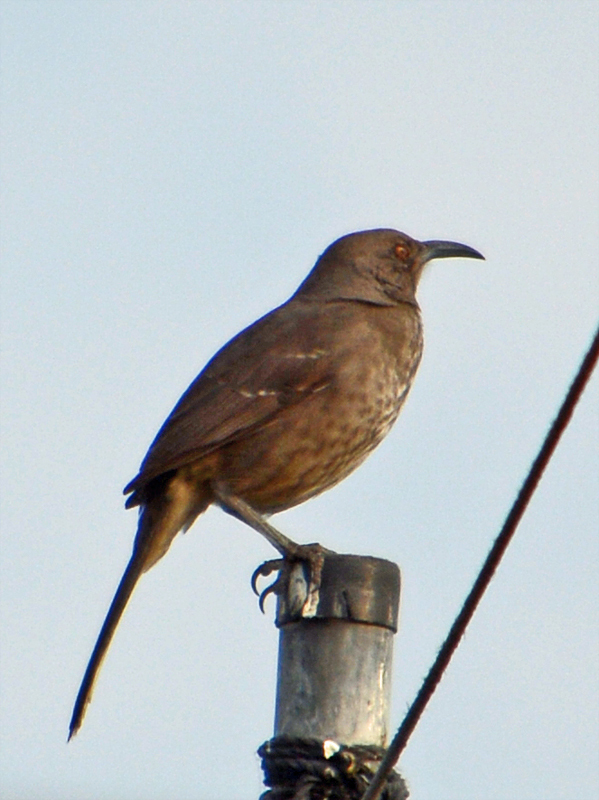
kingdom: Animalia
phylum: Chordata
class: Aves
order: Passeriformes
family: Mimidae
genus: Toxostoma
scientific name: Toxostoma curvirostre
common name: Curve-billed thrasher
